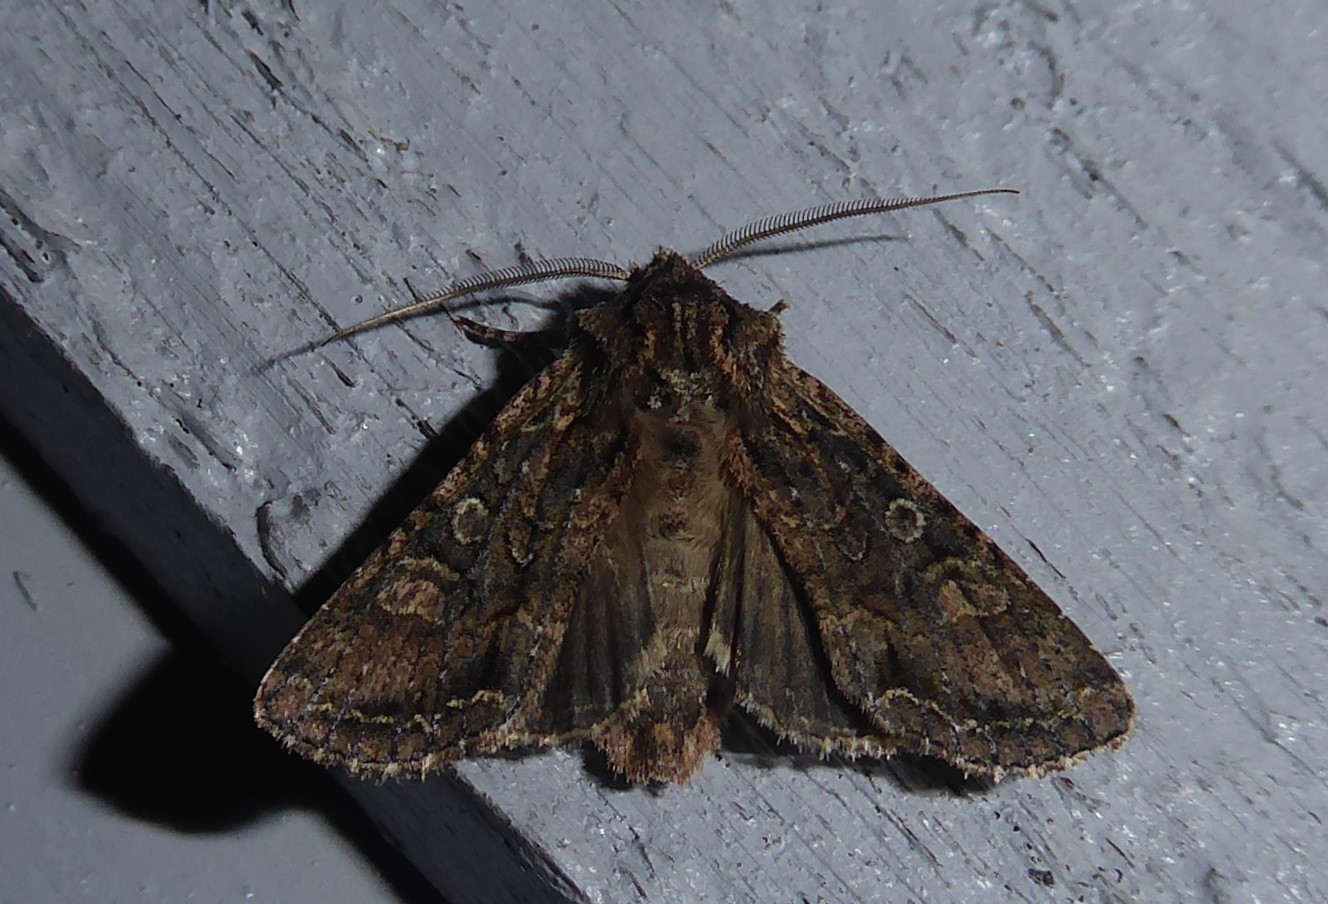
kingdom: Animalia
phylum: Arthropoda
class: Insecta
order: Lepidoptera
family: Noctuidae
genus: Ichneutica
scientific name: Ichneutica mutans
